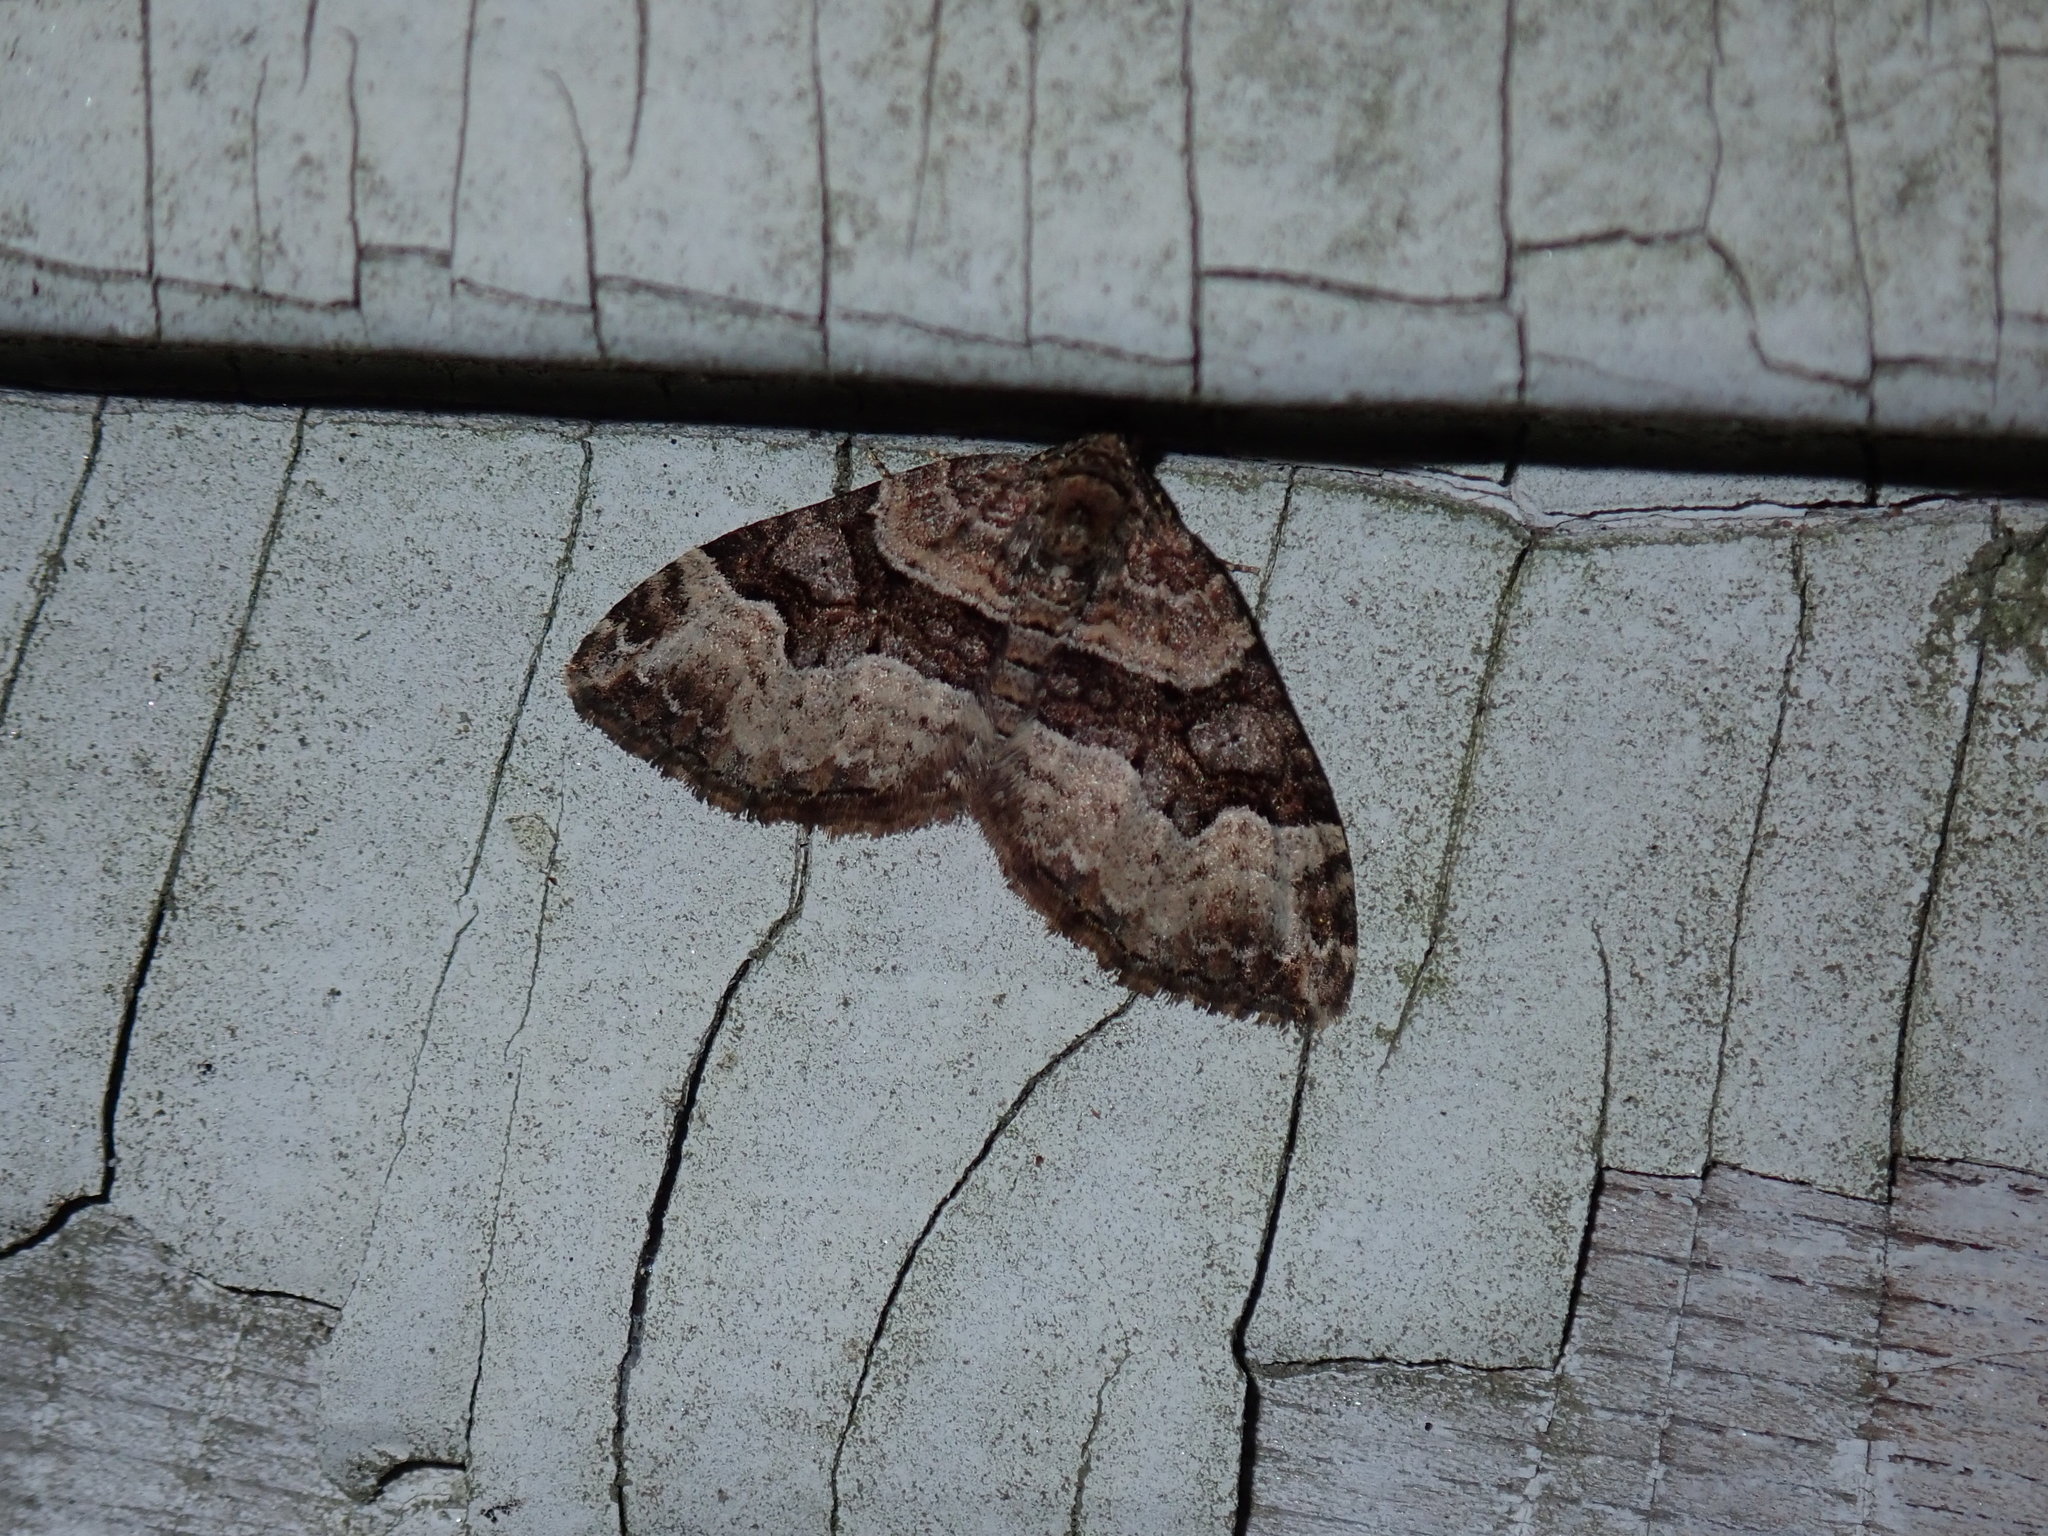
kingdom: Animalia
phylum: Arthropoda
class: Insecta
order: Lepidoptera
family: Geometridae
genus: Xanthorhoe
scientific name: Xanthorhoe lacustrata
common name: Toothed brown carpet
